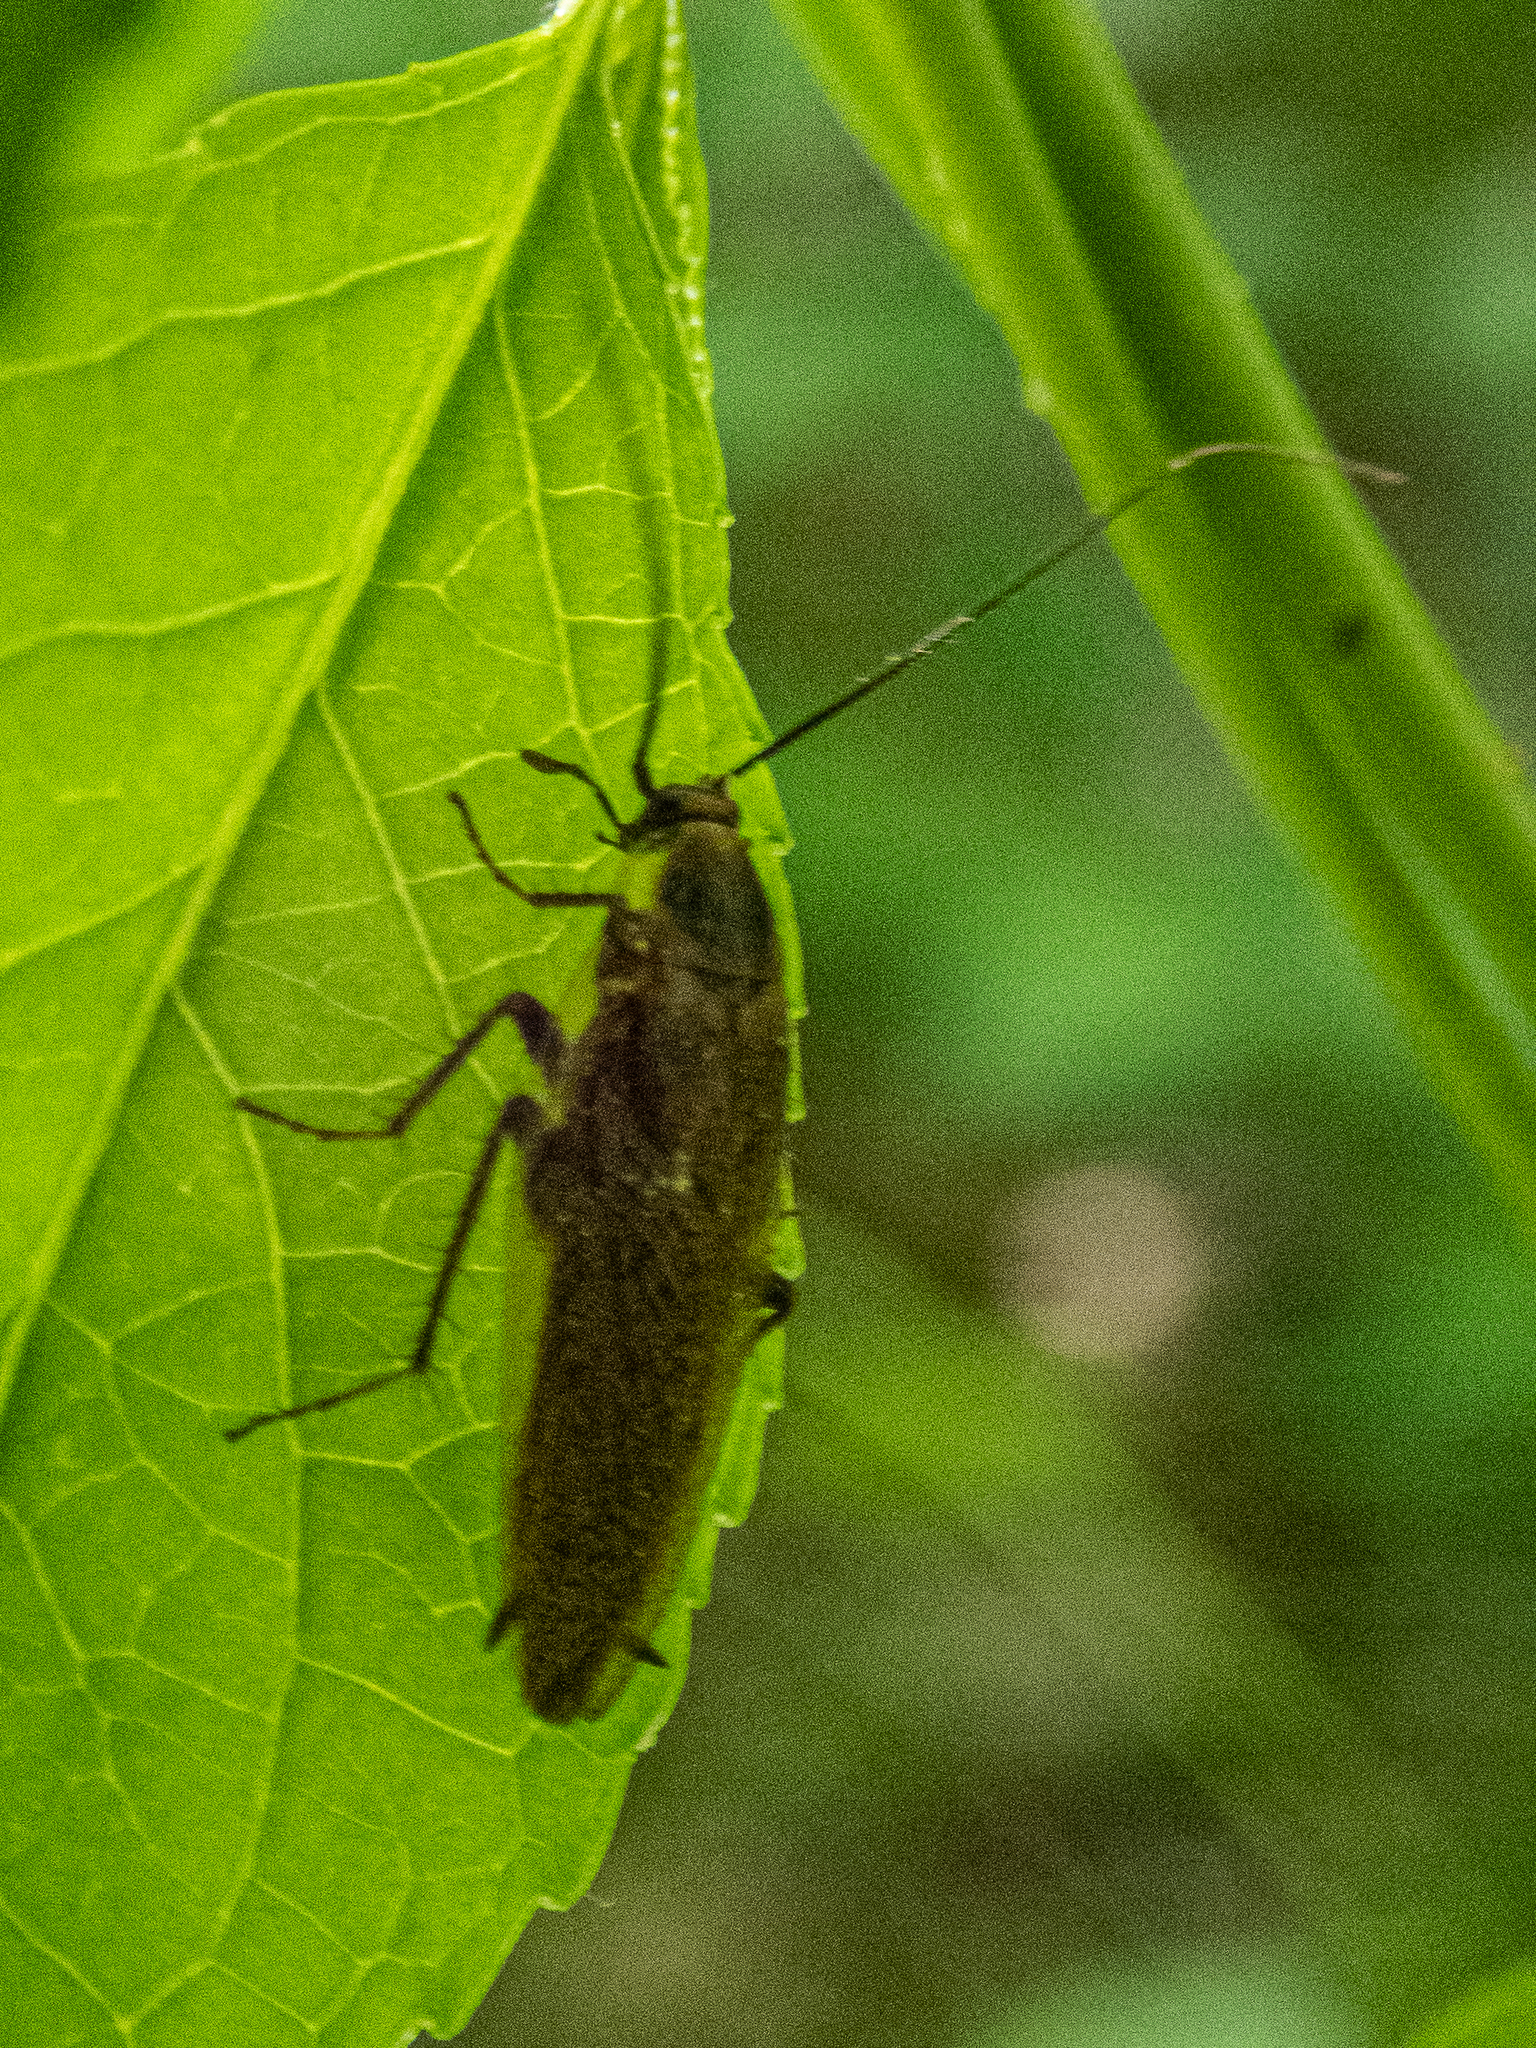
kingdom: Animalia
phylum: Arthropoda
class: Insecta
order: Blattodea
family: Ectobiidae
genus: Ectobius
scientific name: Ectobius lapponicus
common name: Dusky cockroach
